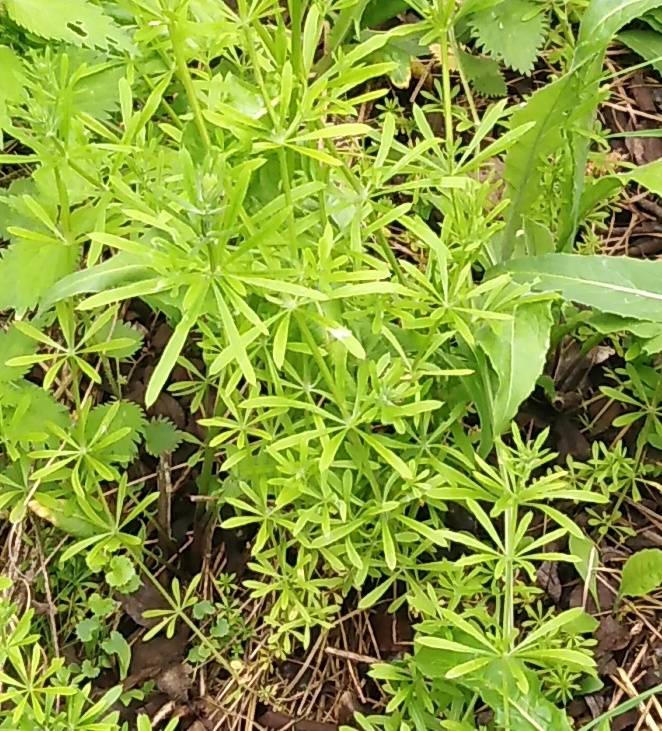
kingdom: Plantae
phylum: Tracheophyta
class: Magnoliopsida
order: Gentianales
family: Rubiaceae
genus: Galium
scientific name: Galium aparine
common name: Cleavers
